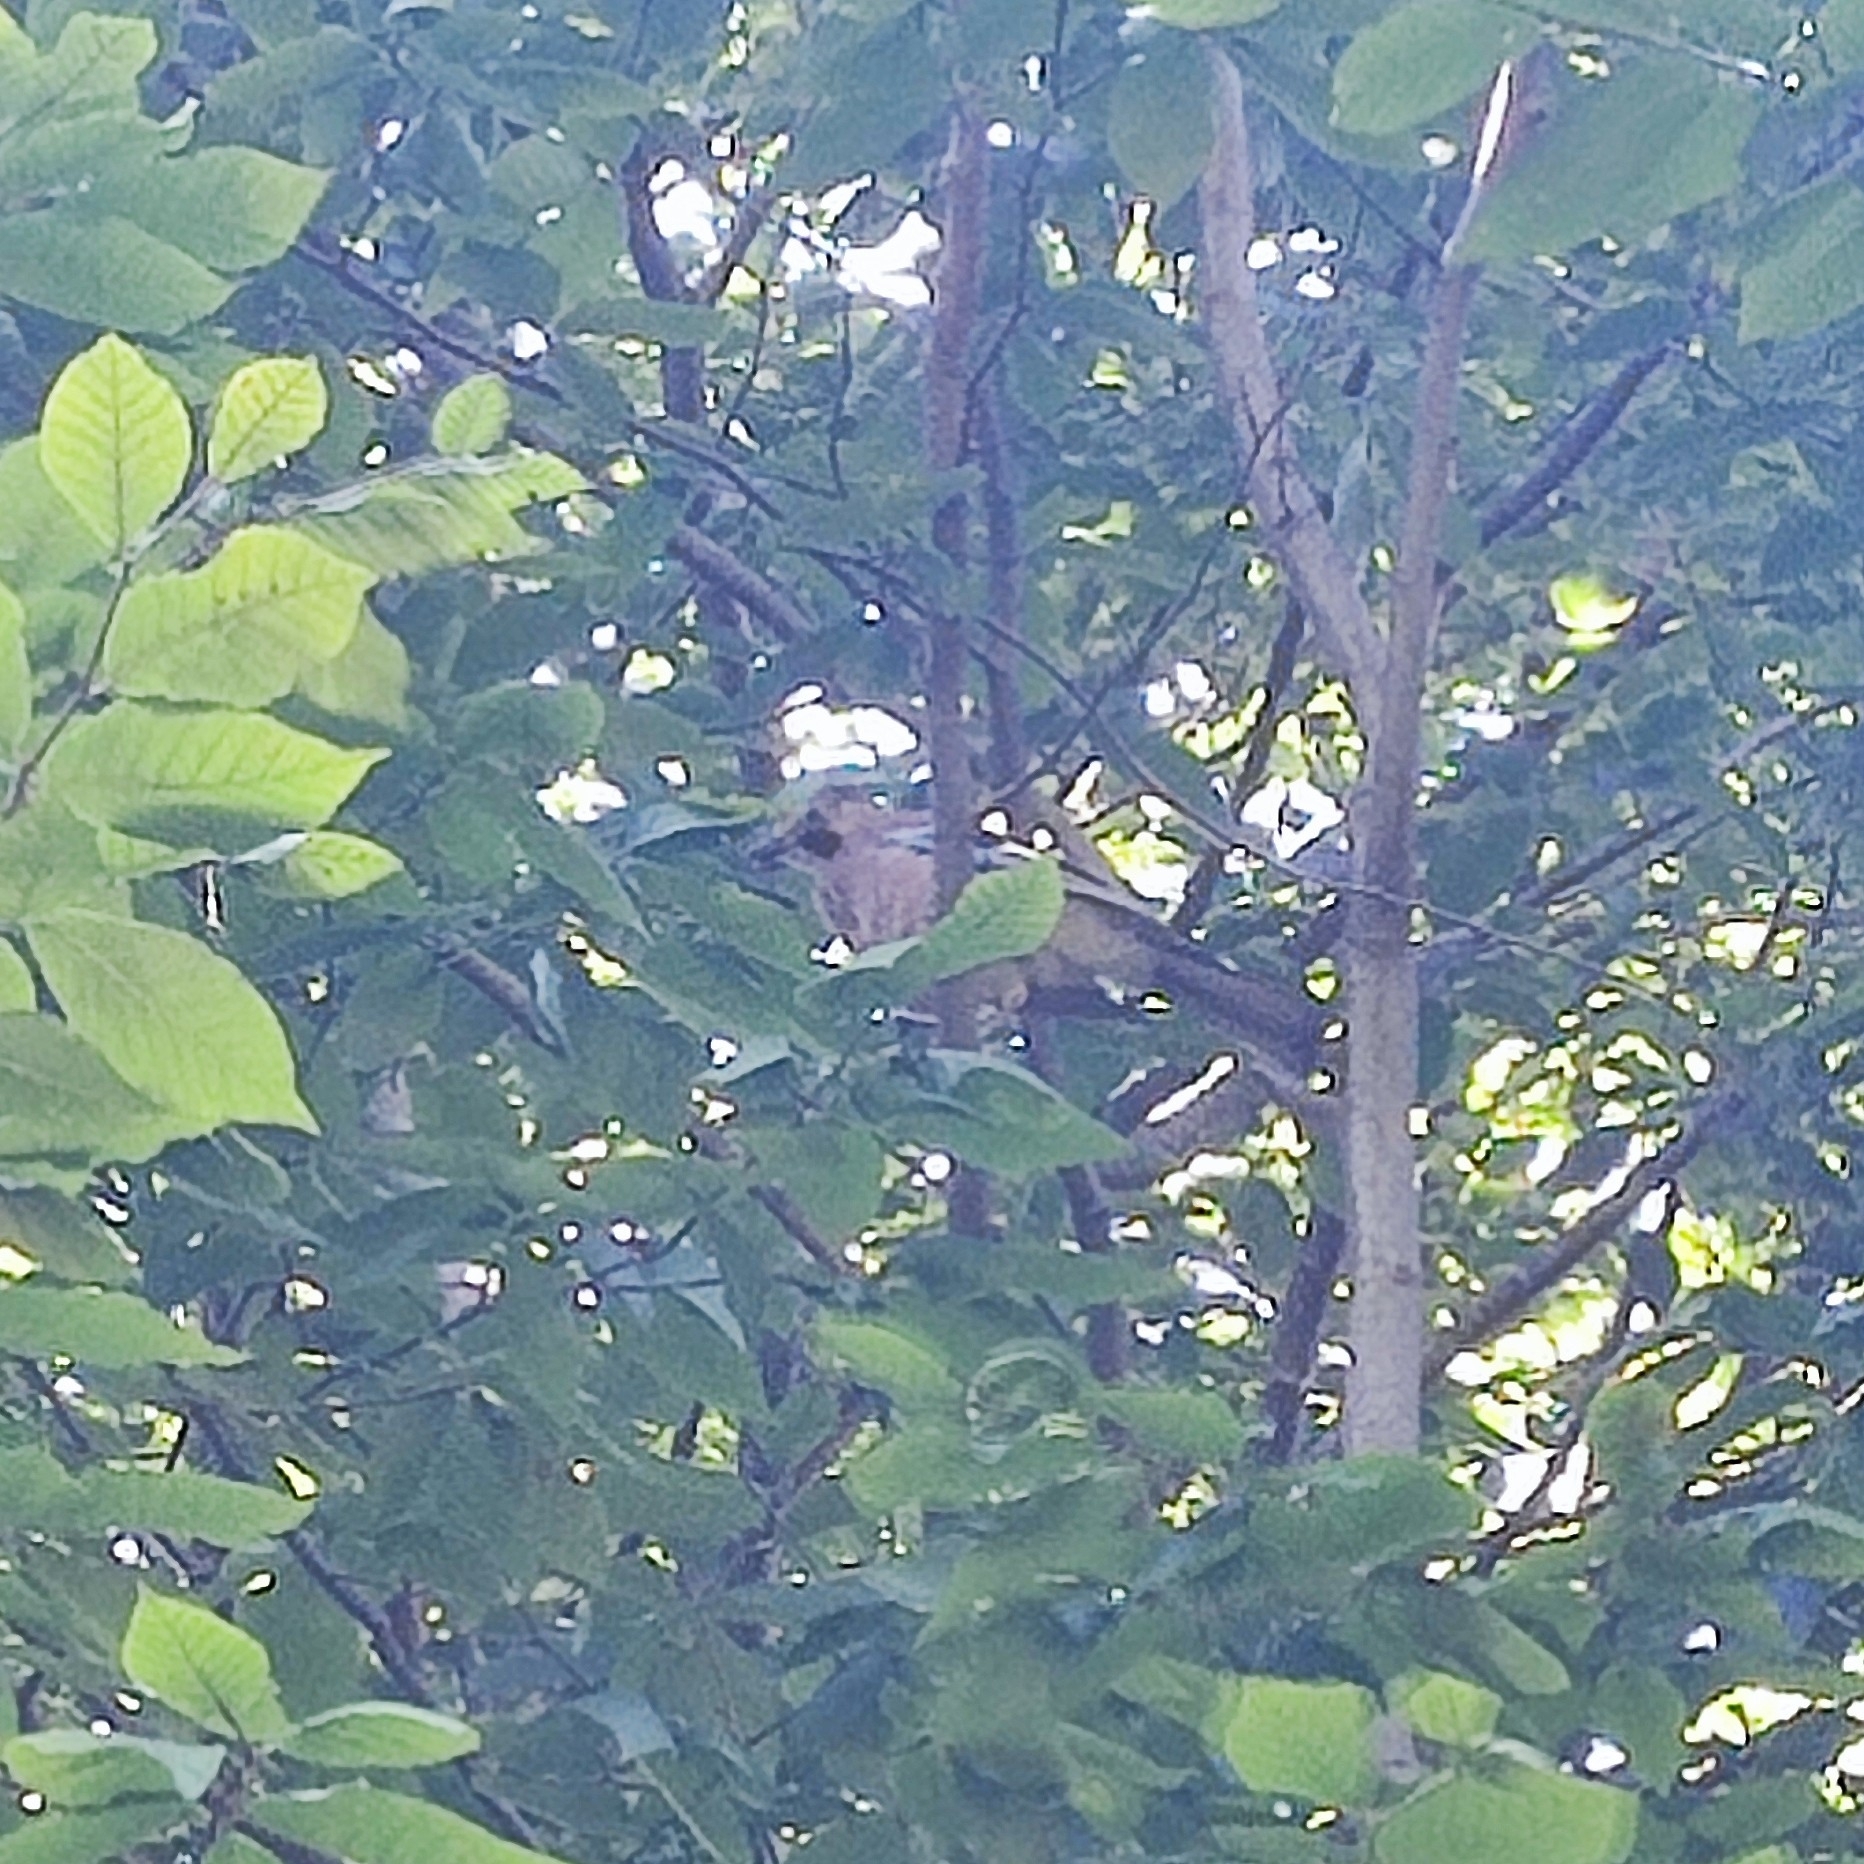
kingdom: Animalia
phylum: Chordata
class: Aves
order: Passeriformes
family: Corvidae
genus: Garrulus
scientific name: Garrulus glandarius
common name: Eurasian jay
